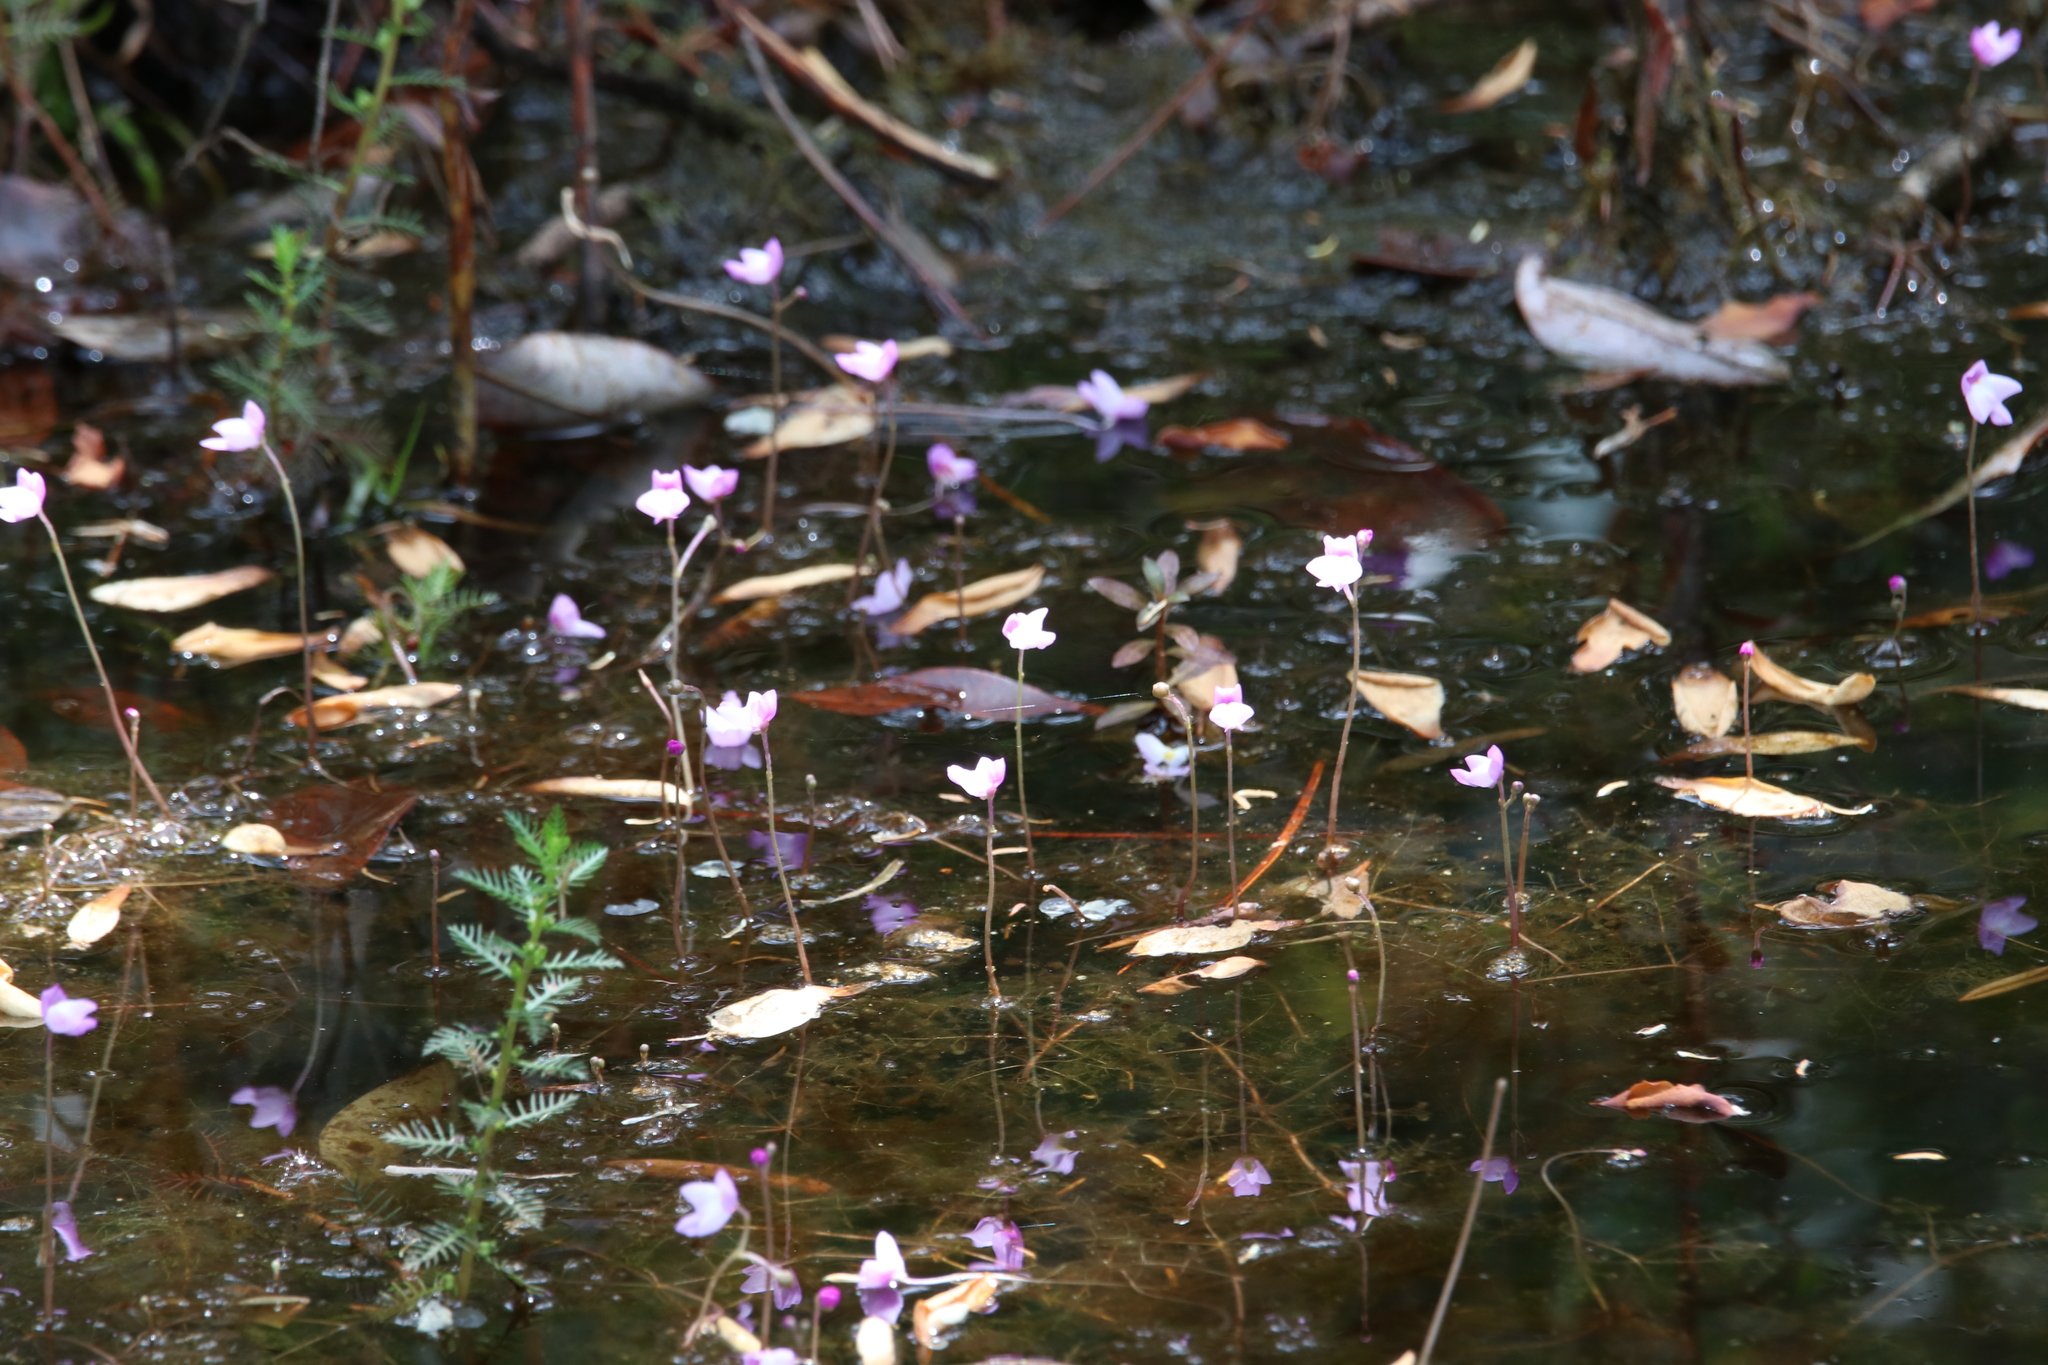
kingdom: Plantae
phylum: Tracheophyta
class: Magnoliopsida
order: Lamiales
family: Lentibulariaceae
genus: Utricularia
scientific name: Utricularia purpurea
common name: Eastern purple bladderwort
